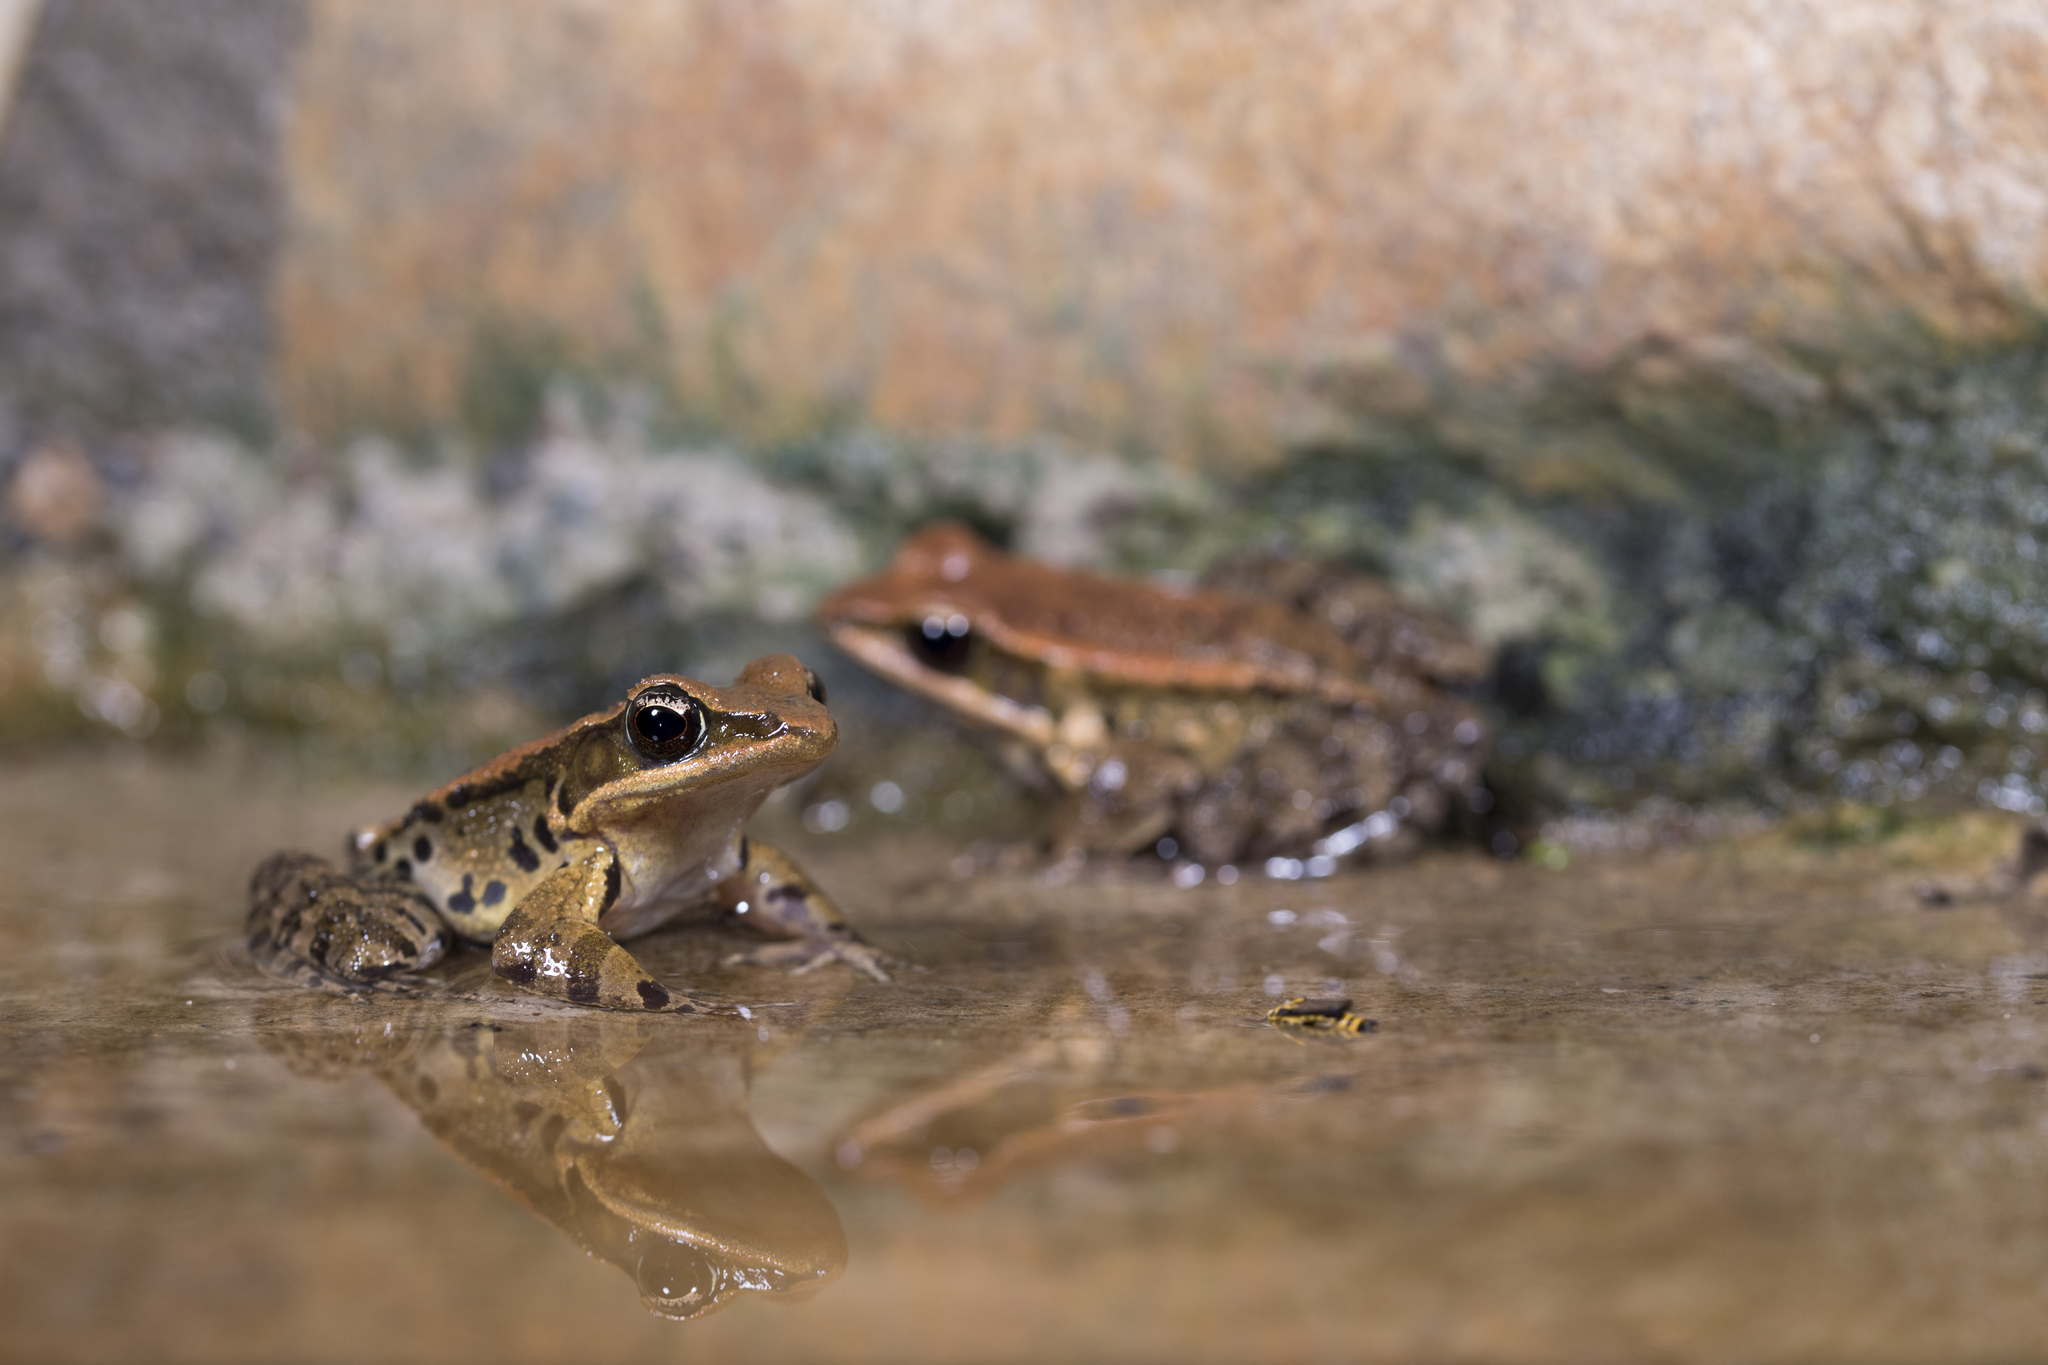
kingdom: Animalia
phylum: Chordata
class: Amphibia
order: Anura
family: Ranidae
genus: Hylarana
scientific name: Hylarana latouchii
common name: Broad-folded frog
